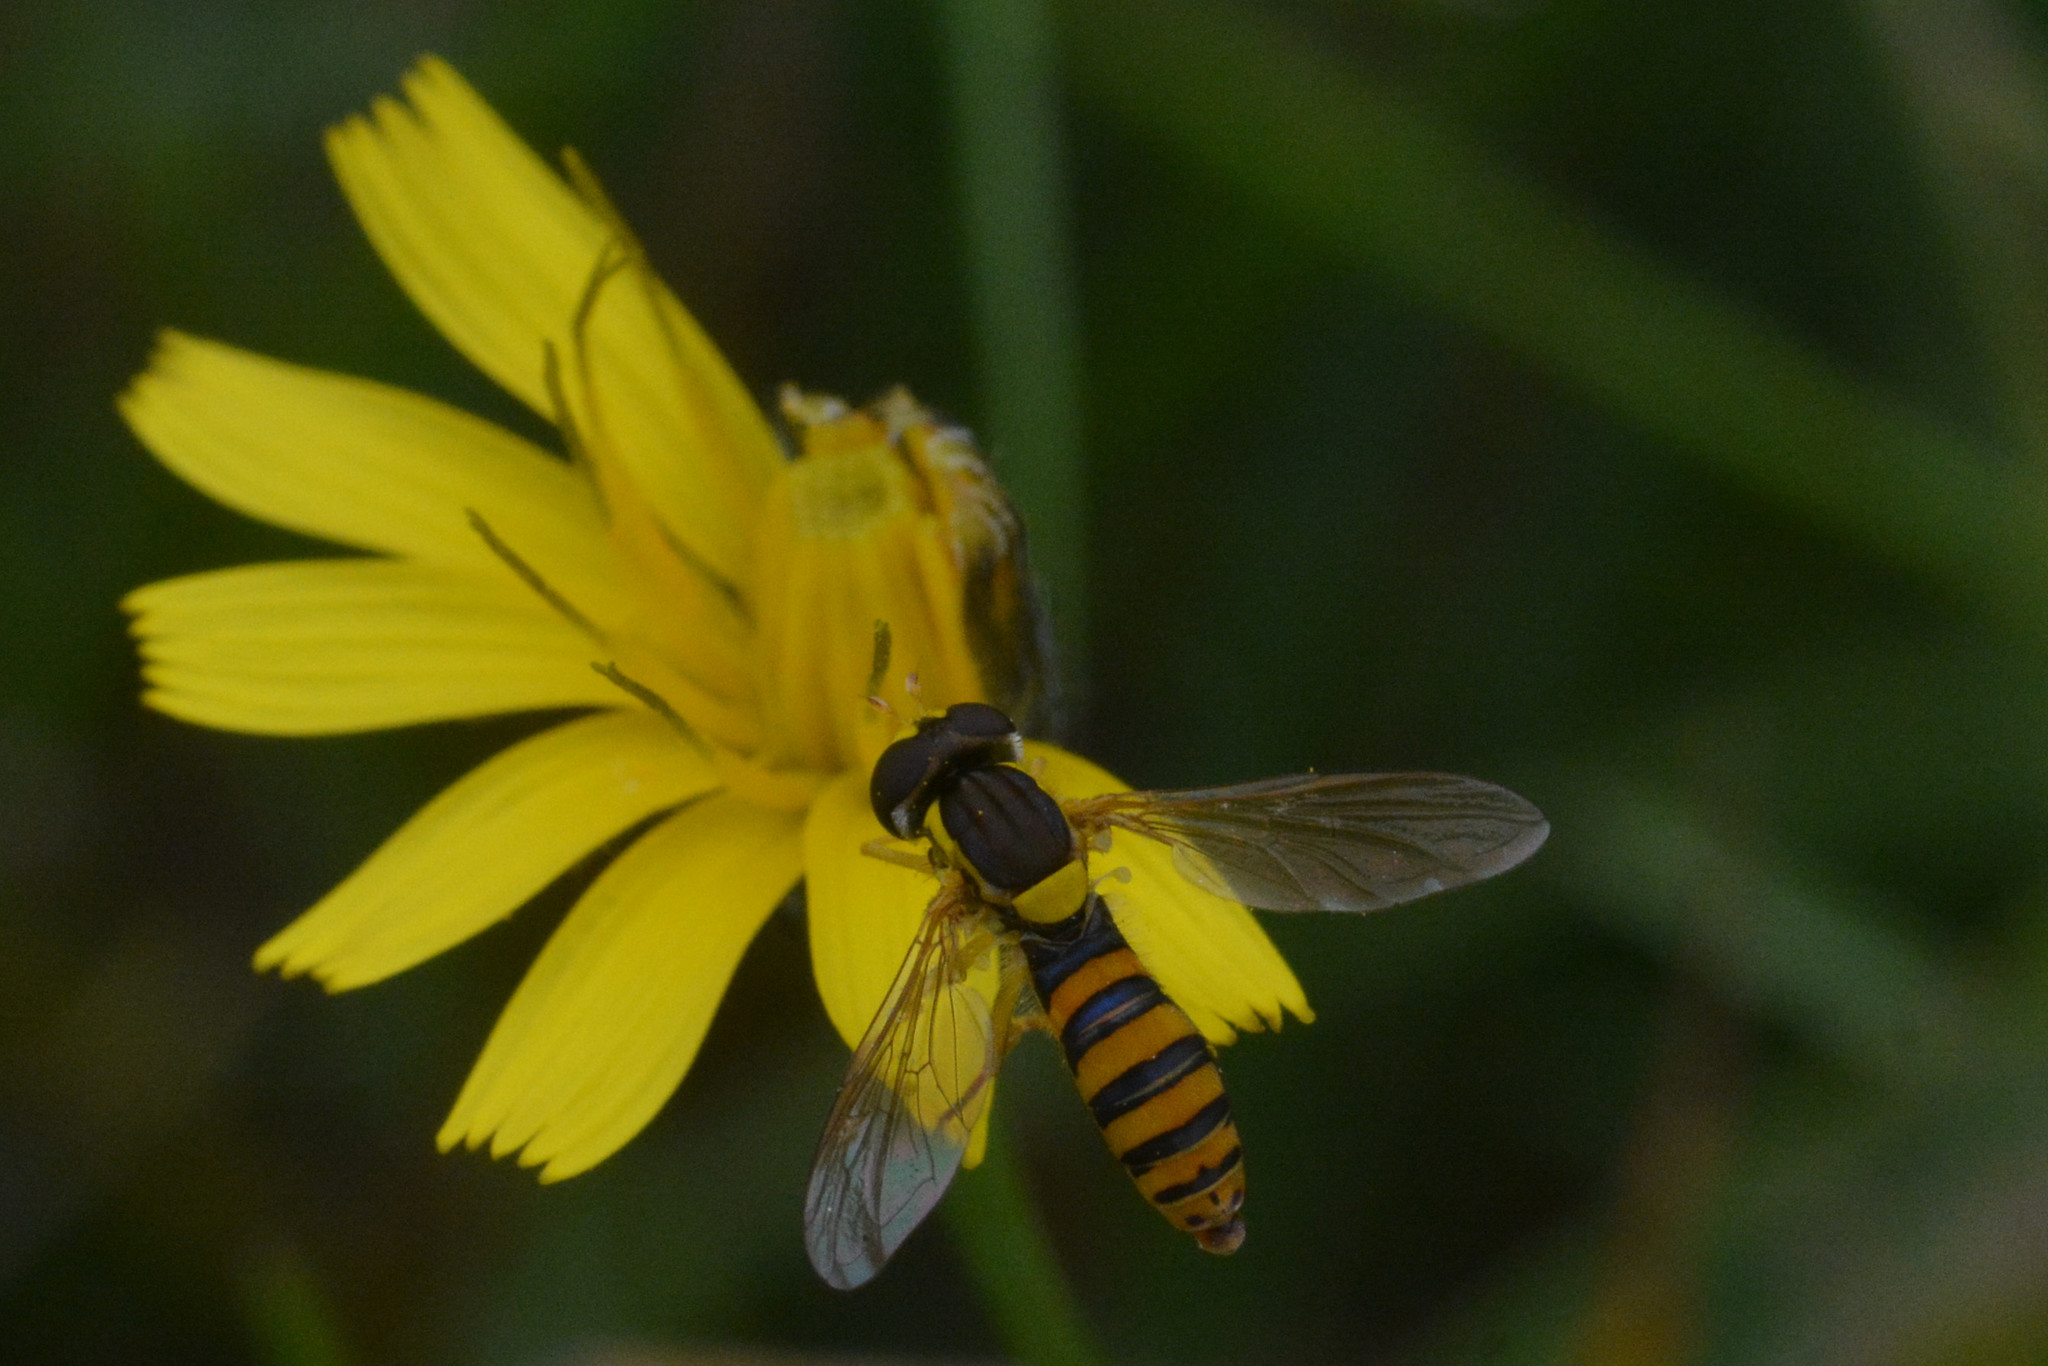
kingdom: Animalia
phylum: Arthropoda
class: Insecta
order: Diptera
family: Syrphidae
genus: Sphaerophoria
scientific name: Sphaerophoria
